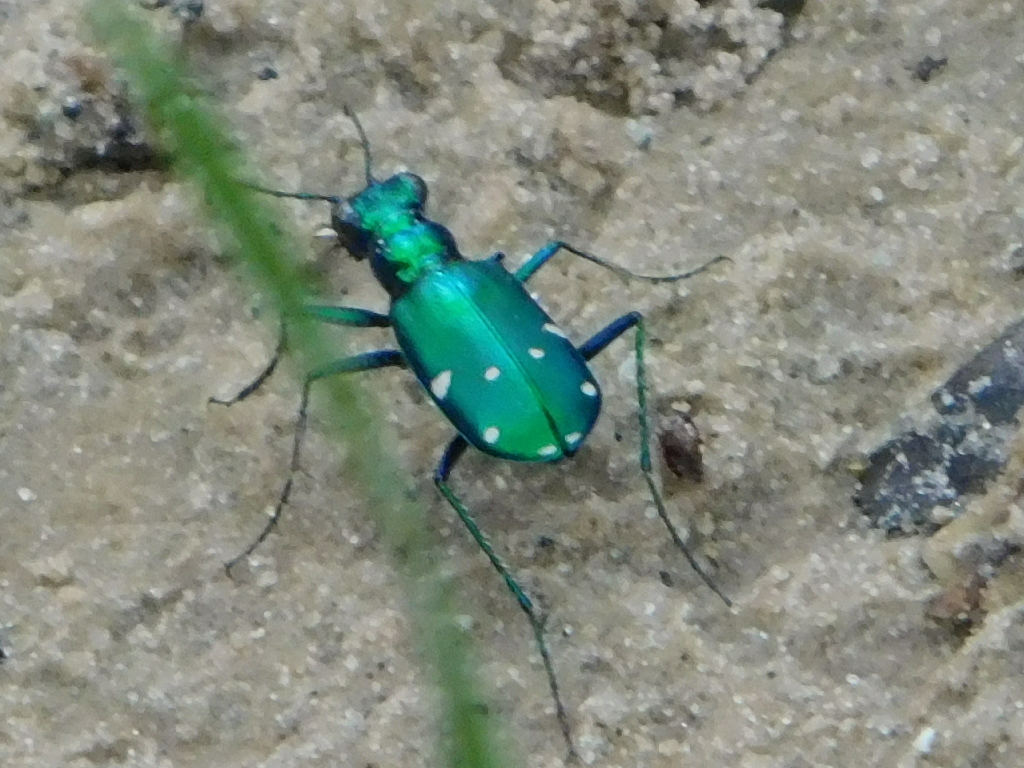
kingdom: Animalia
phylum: Arthropoda
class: Insecta
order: Coleoptera
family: Carabidae
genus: Cicindela
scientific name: Cicindela sexguttata
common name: Six-spotted tiger beetle
